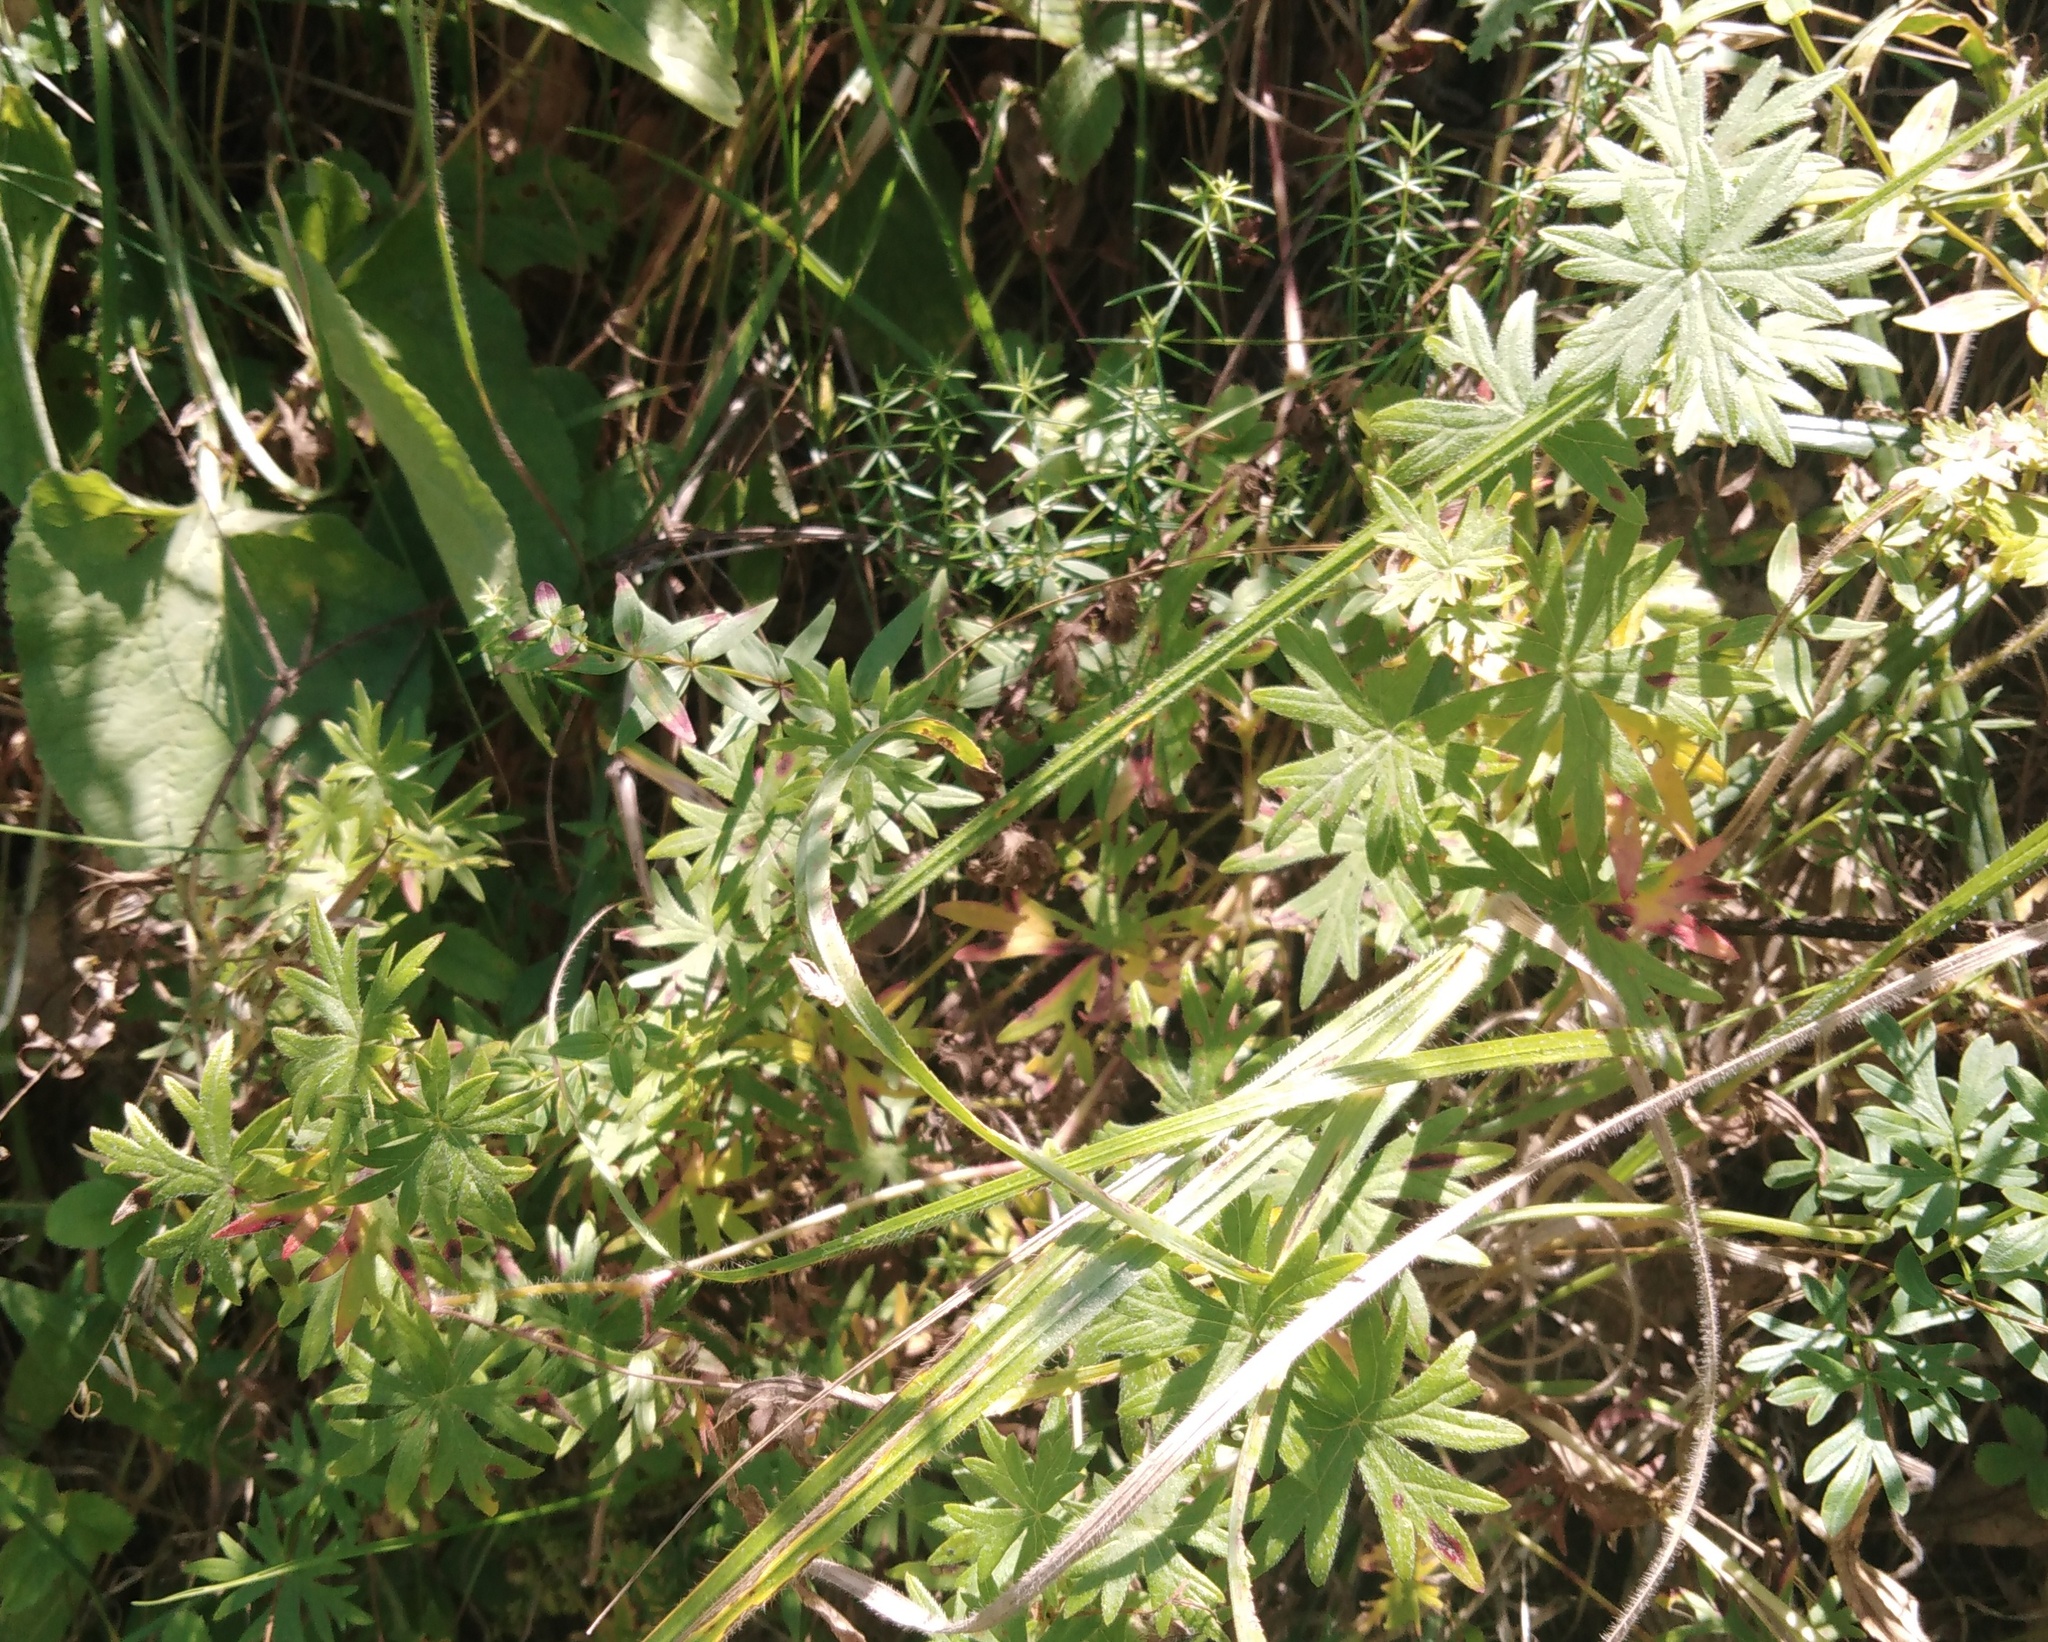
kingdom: Plantae
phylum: Tracheophyta
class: Magnoliopsida
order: Geraniales
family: Geraniaceae
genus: Geranium
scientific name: Geranium sanguineum
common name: Bloody crane's-bill
